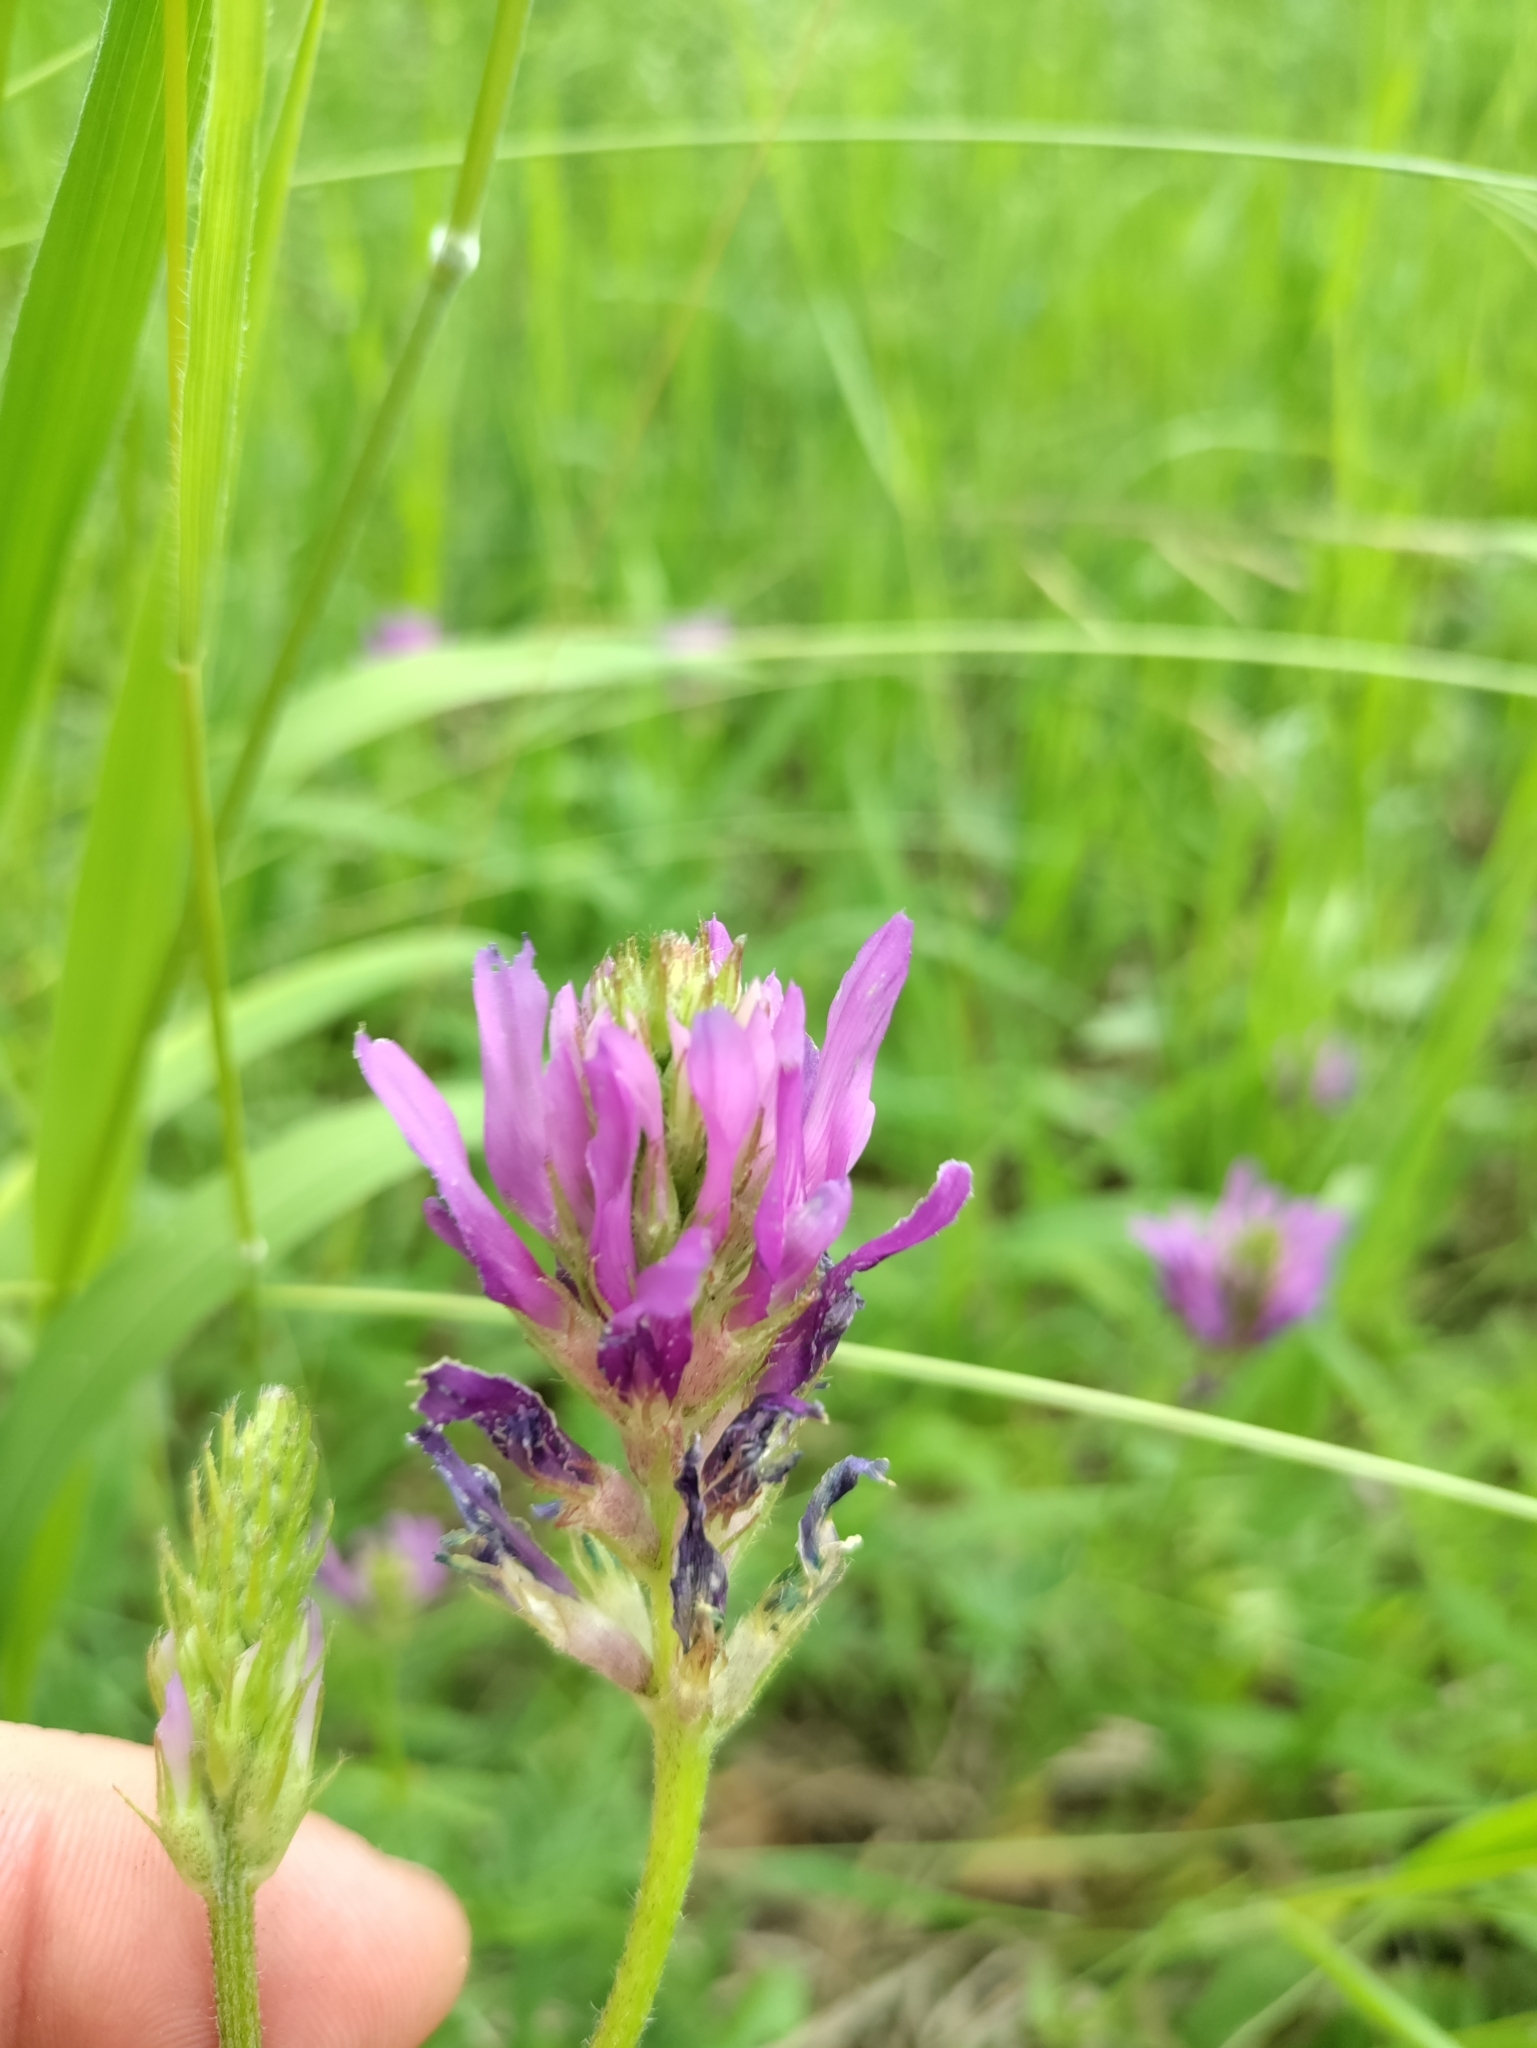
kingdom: Plantae
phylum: Tracheophyta
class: Magnoliopsida
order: Fabales
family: Fabaceae
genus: Astragalus
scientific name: Astragalus onobrychis
